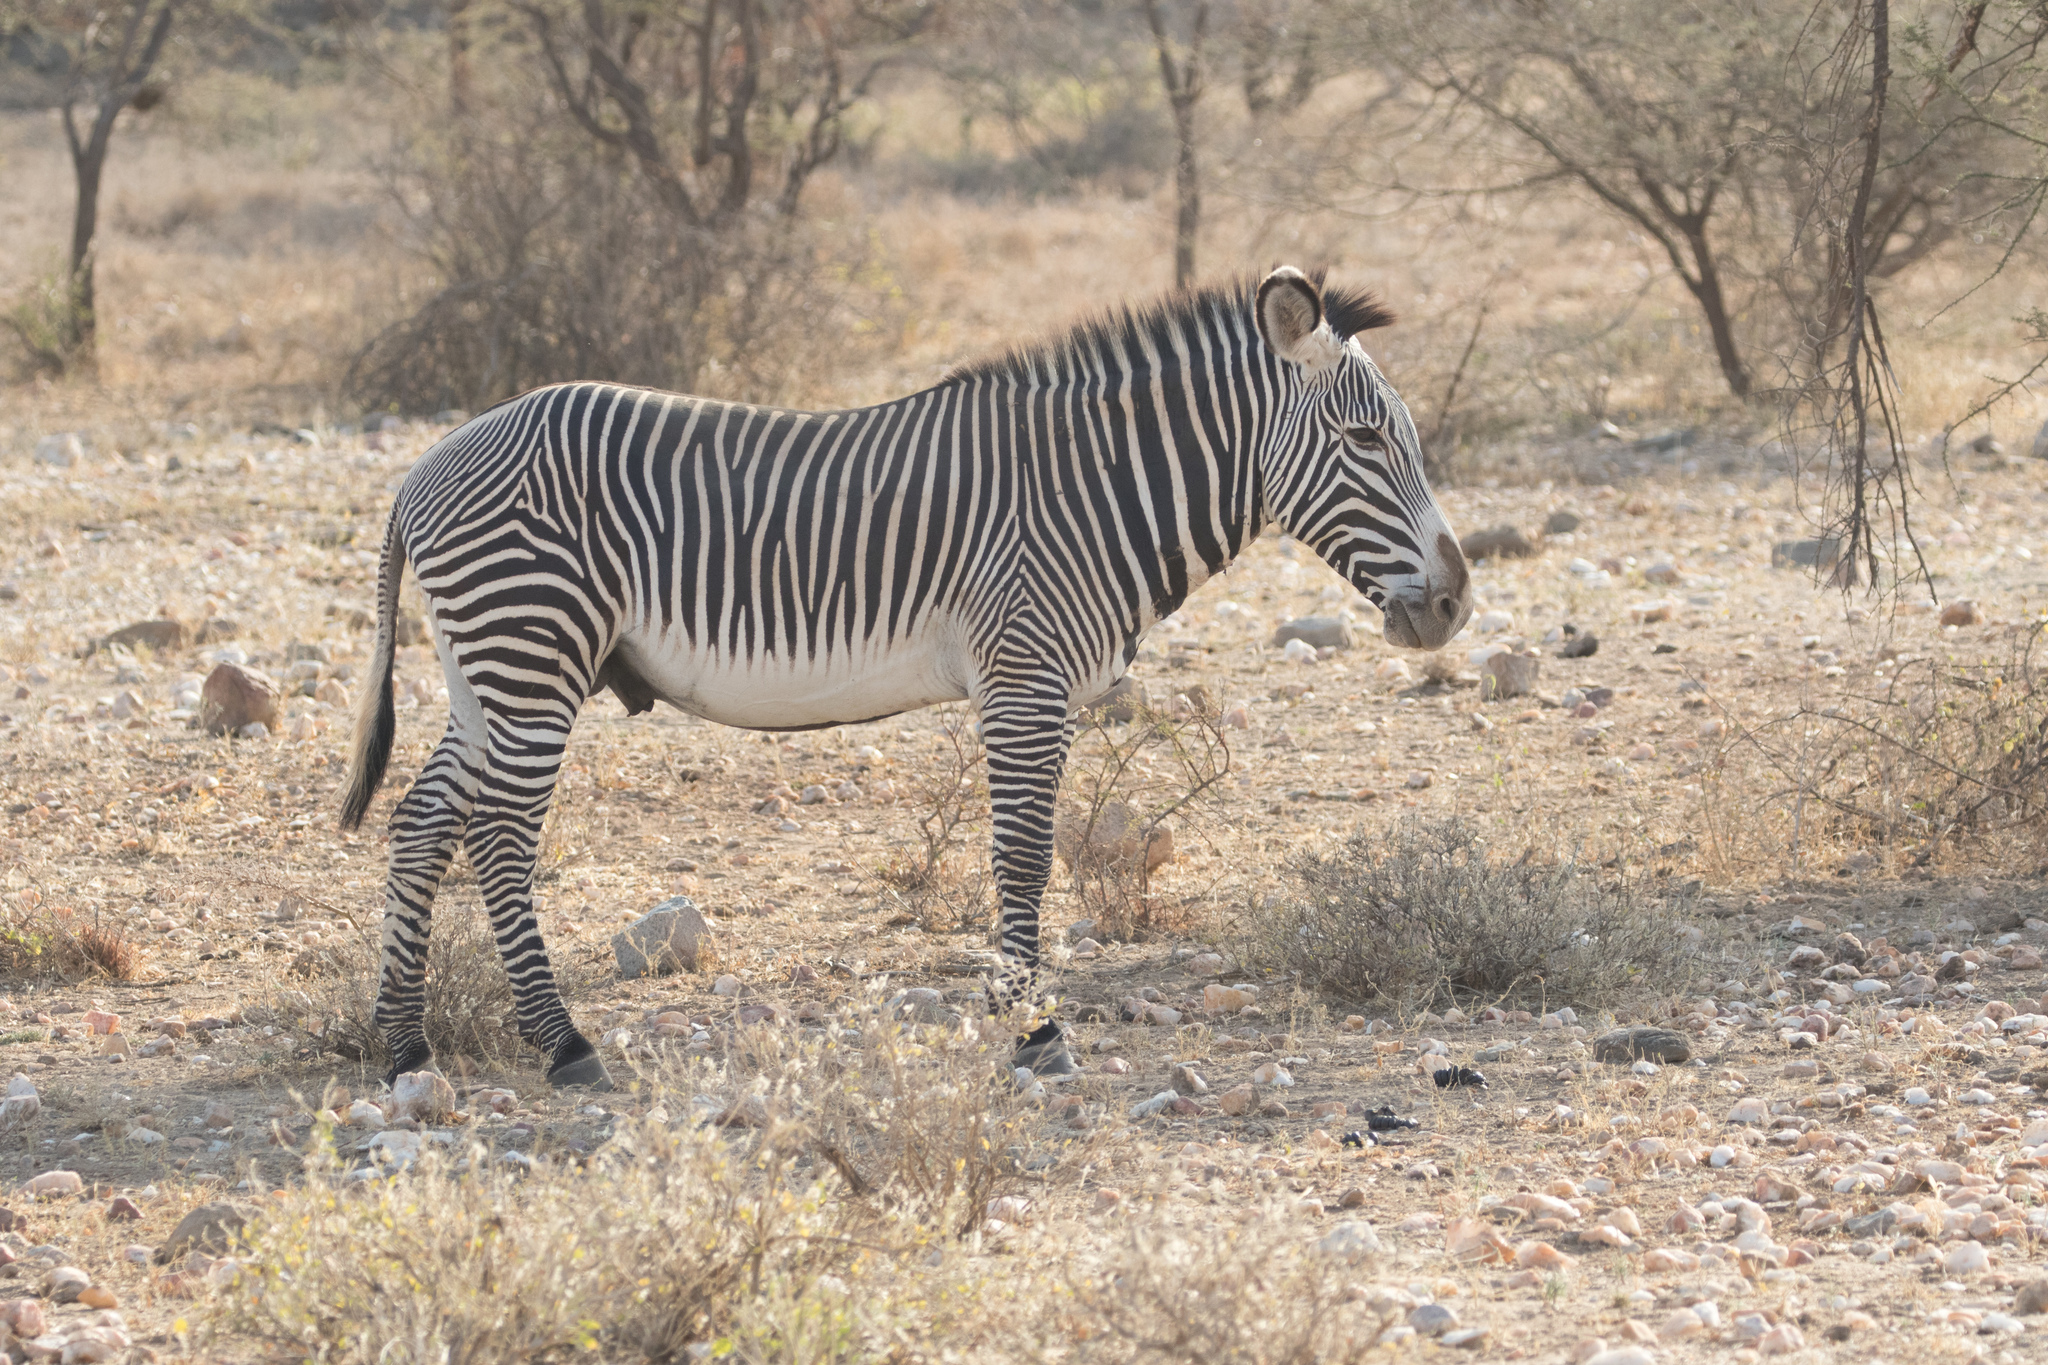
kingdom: Animalia
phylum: Chordata
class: Mammalia
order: Perissodactyla
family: Equidae
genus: Equus
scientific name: Equus grevyi
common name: Grevy's zebra
